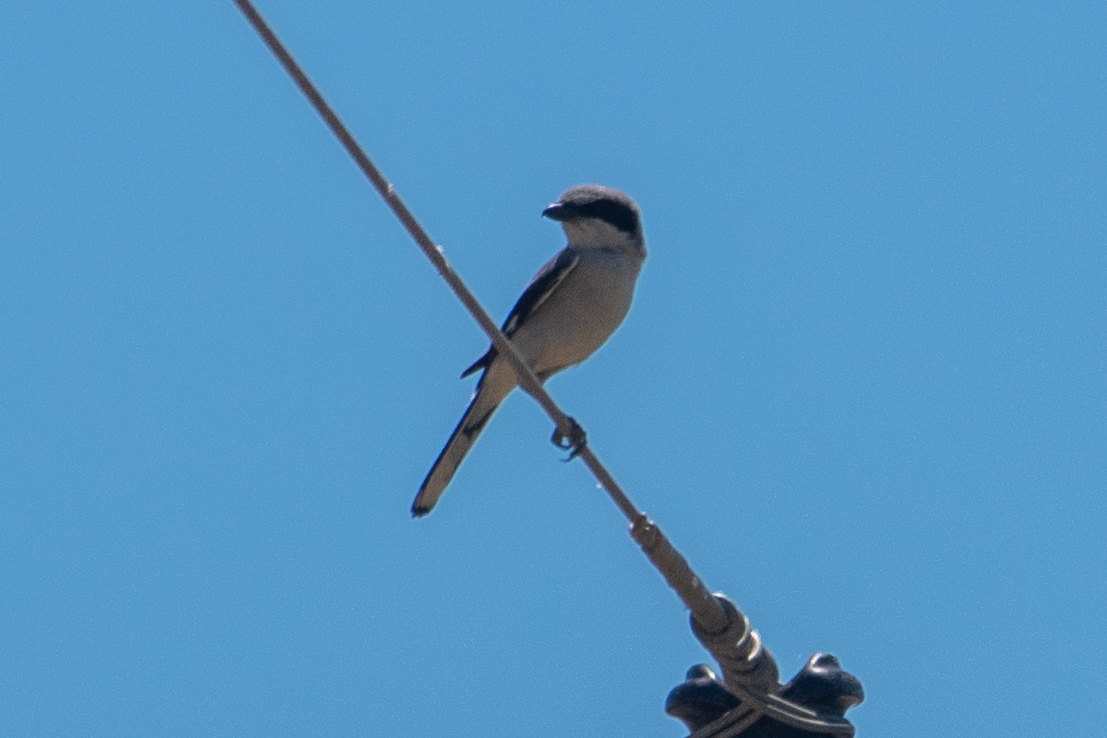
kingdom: Animalia
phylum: Chordata
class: Aves
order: Passeriformes
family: Laniidae
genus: Lanius
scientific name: Lanius ludovicianus
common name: Loggerhead shrike
